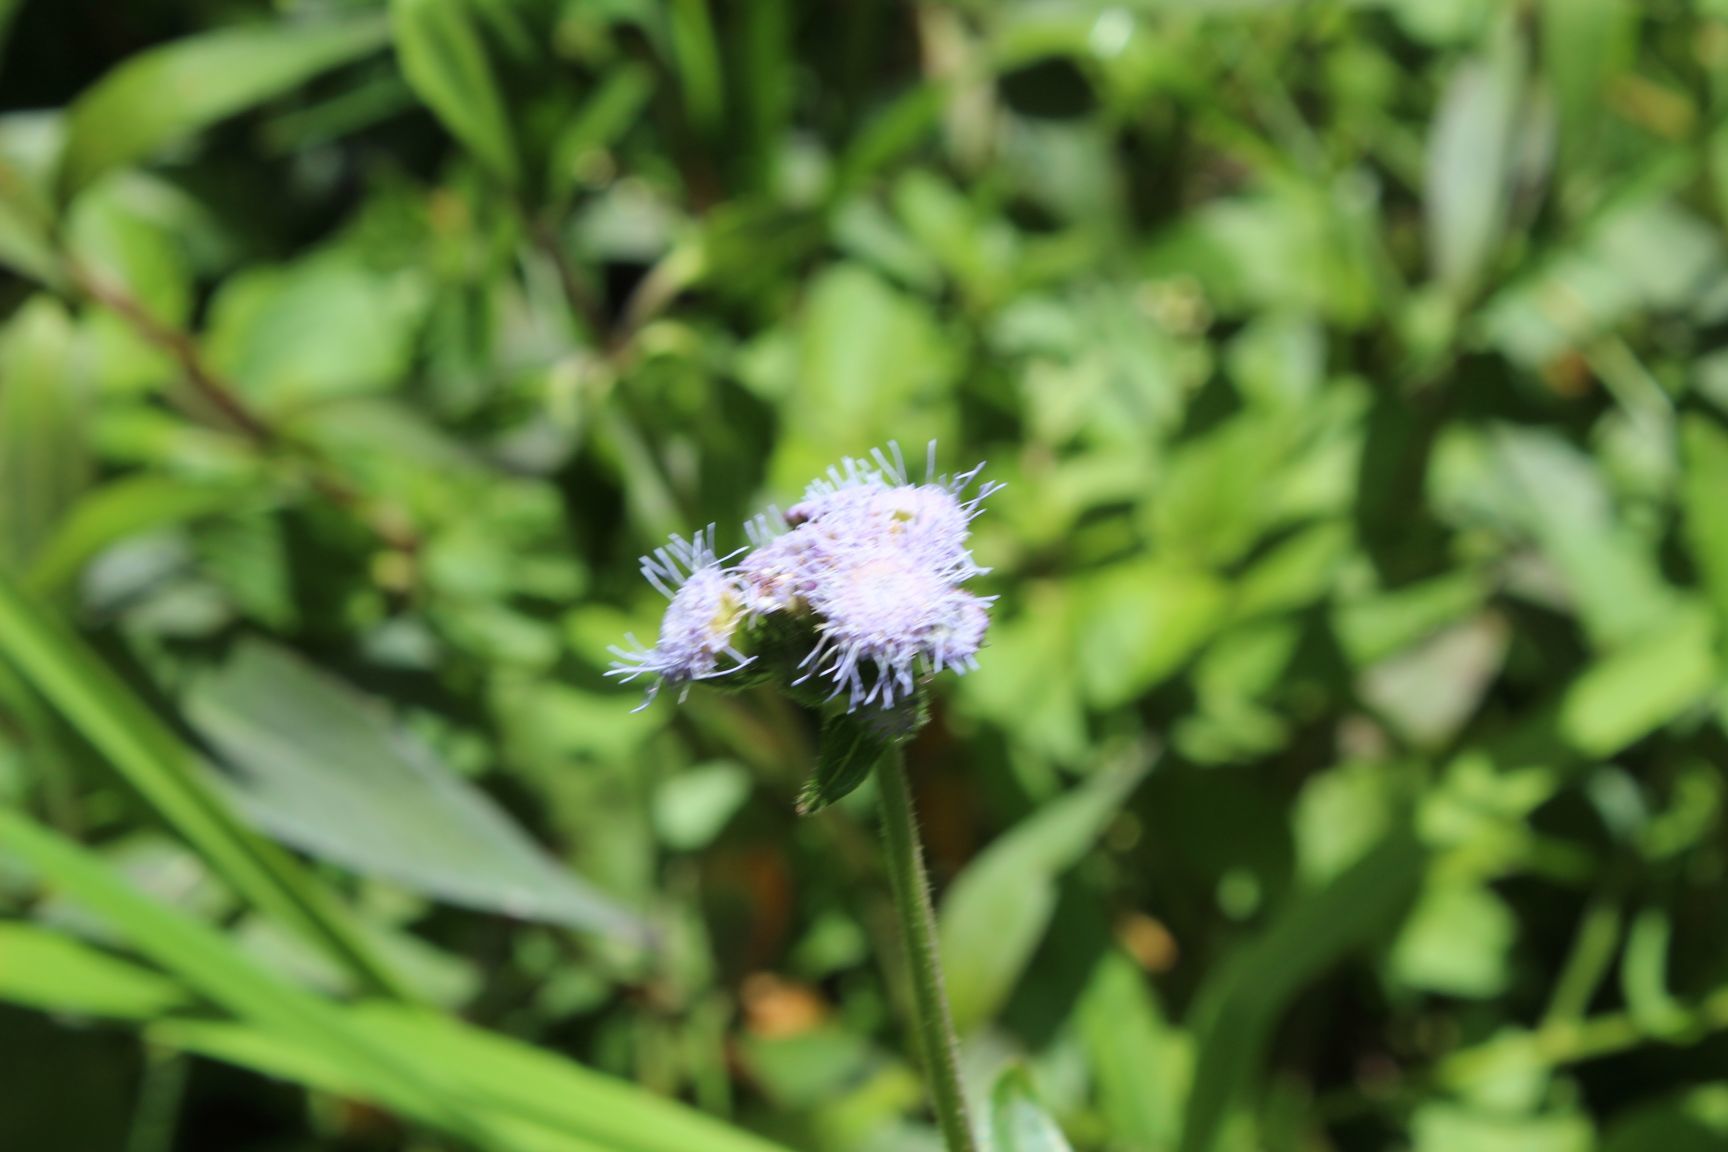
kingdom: Plantae
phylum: Tracheophyta
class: Magnoliopsida
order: Asterales
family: Asteraceae
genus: Ageratum
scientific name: Ageratum houstonianum
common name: Bluemink
